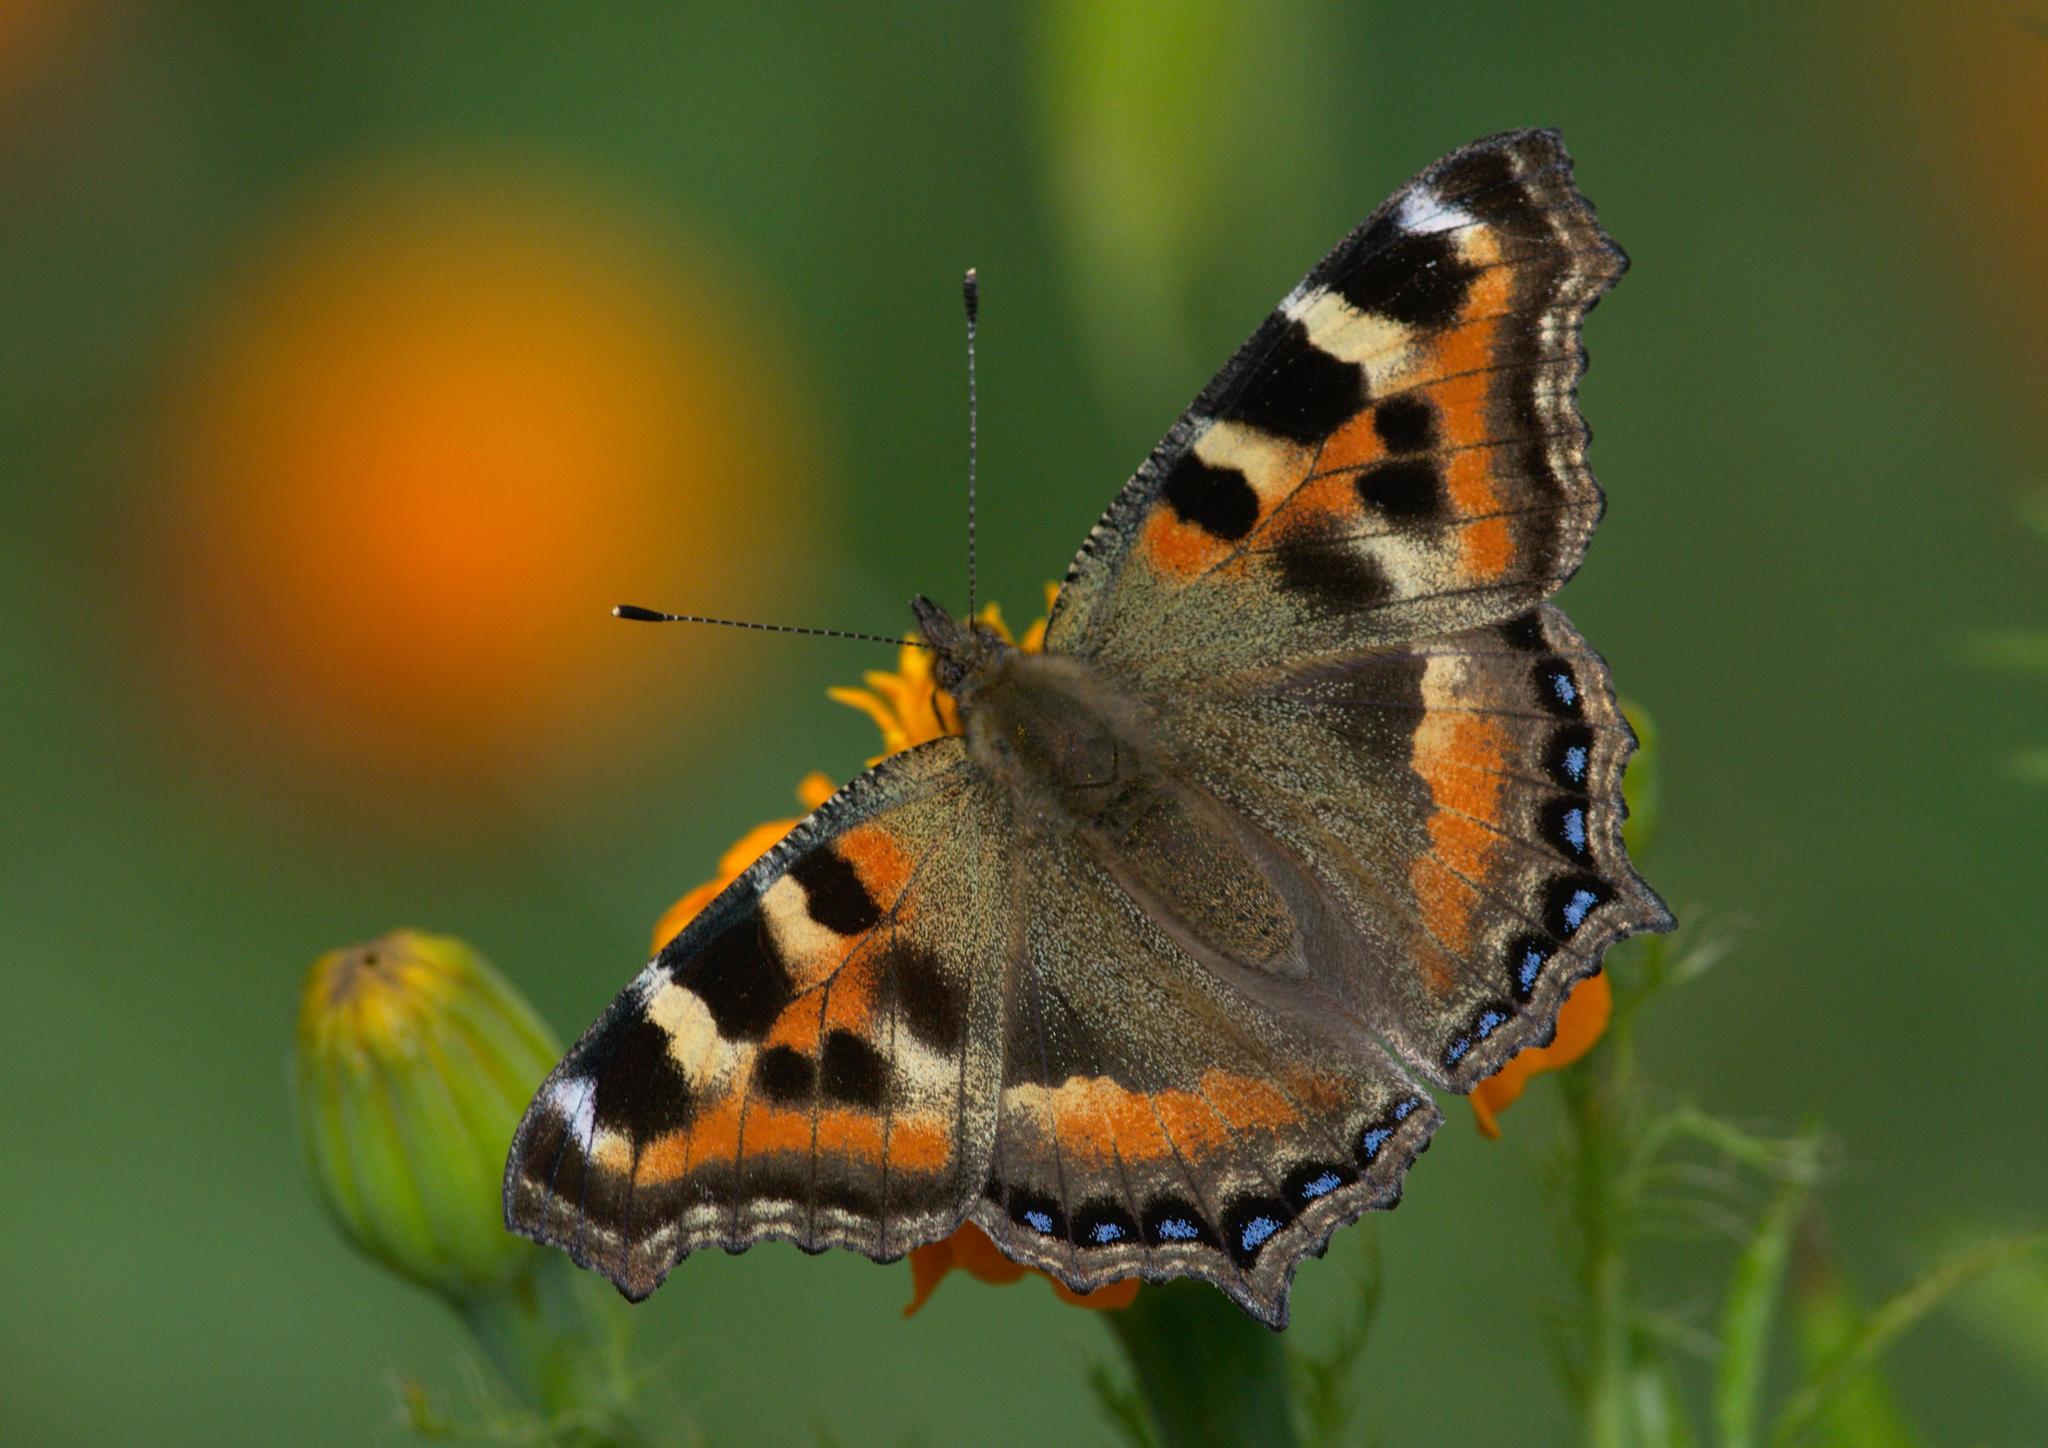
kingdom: Animalia
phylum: Arthropoda
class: Insecta
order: Lepidoptera
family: Nymphalidae
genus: Aglais
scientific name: Aglais caschmirensis
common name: Indian tortoiseshell
